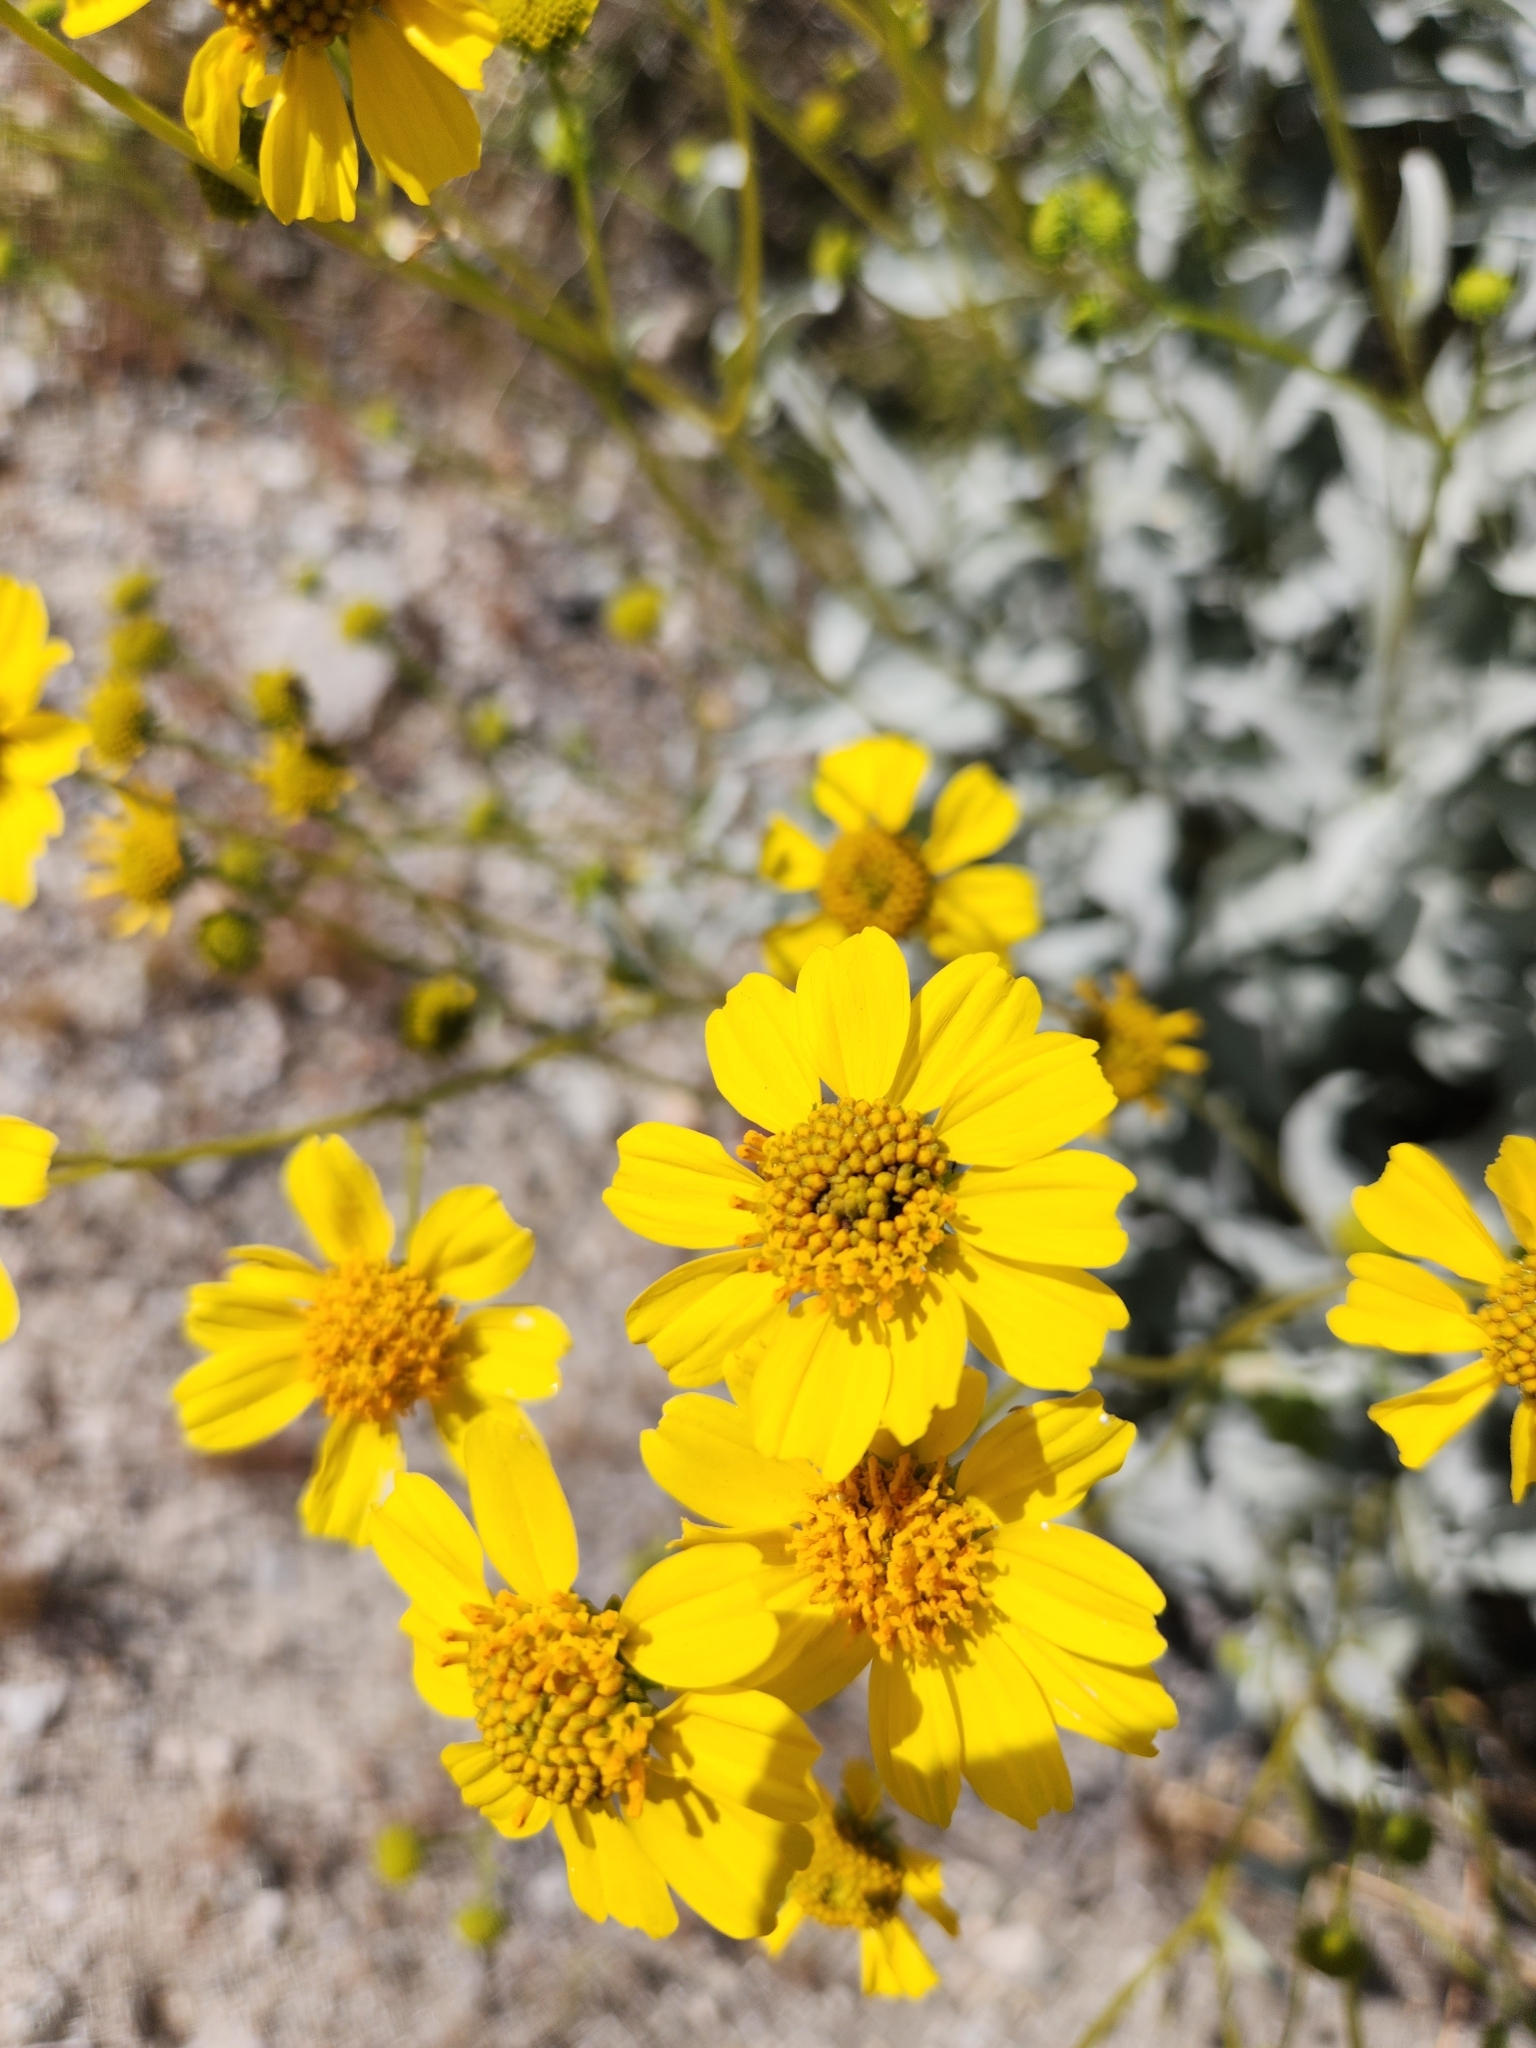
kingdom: Plantae
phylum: Tracheophyta
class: Magnoliopsida
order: Asterales
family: Asteraceae
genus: Encelia
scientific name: Encelia farinosa
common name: Brittlebush
